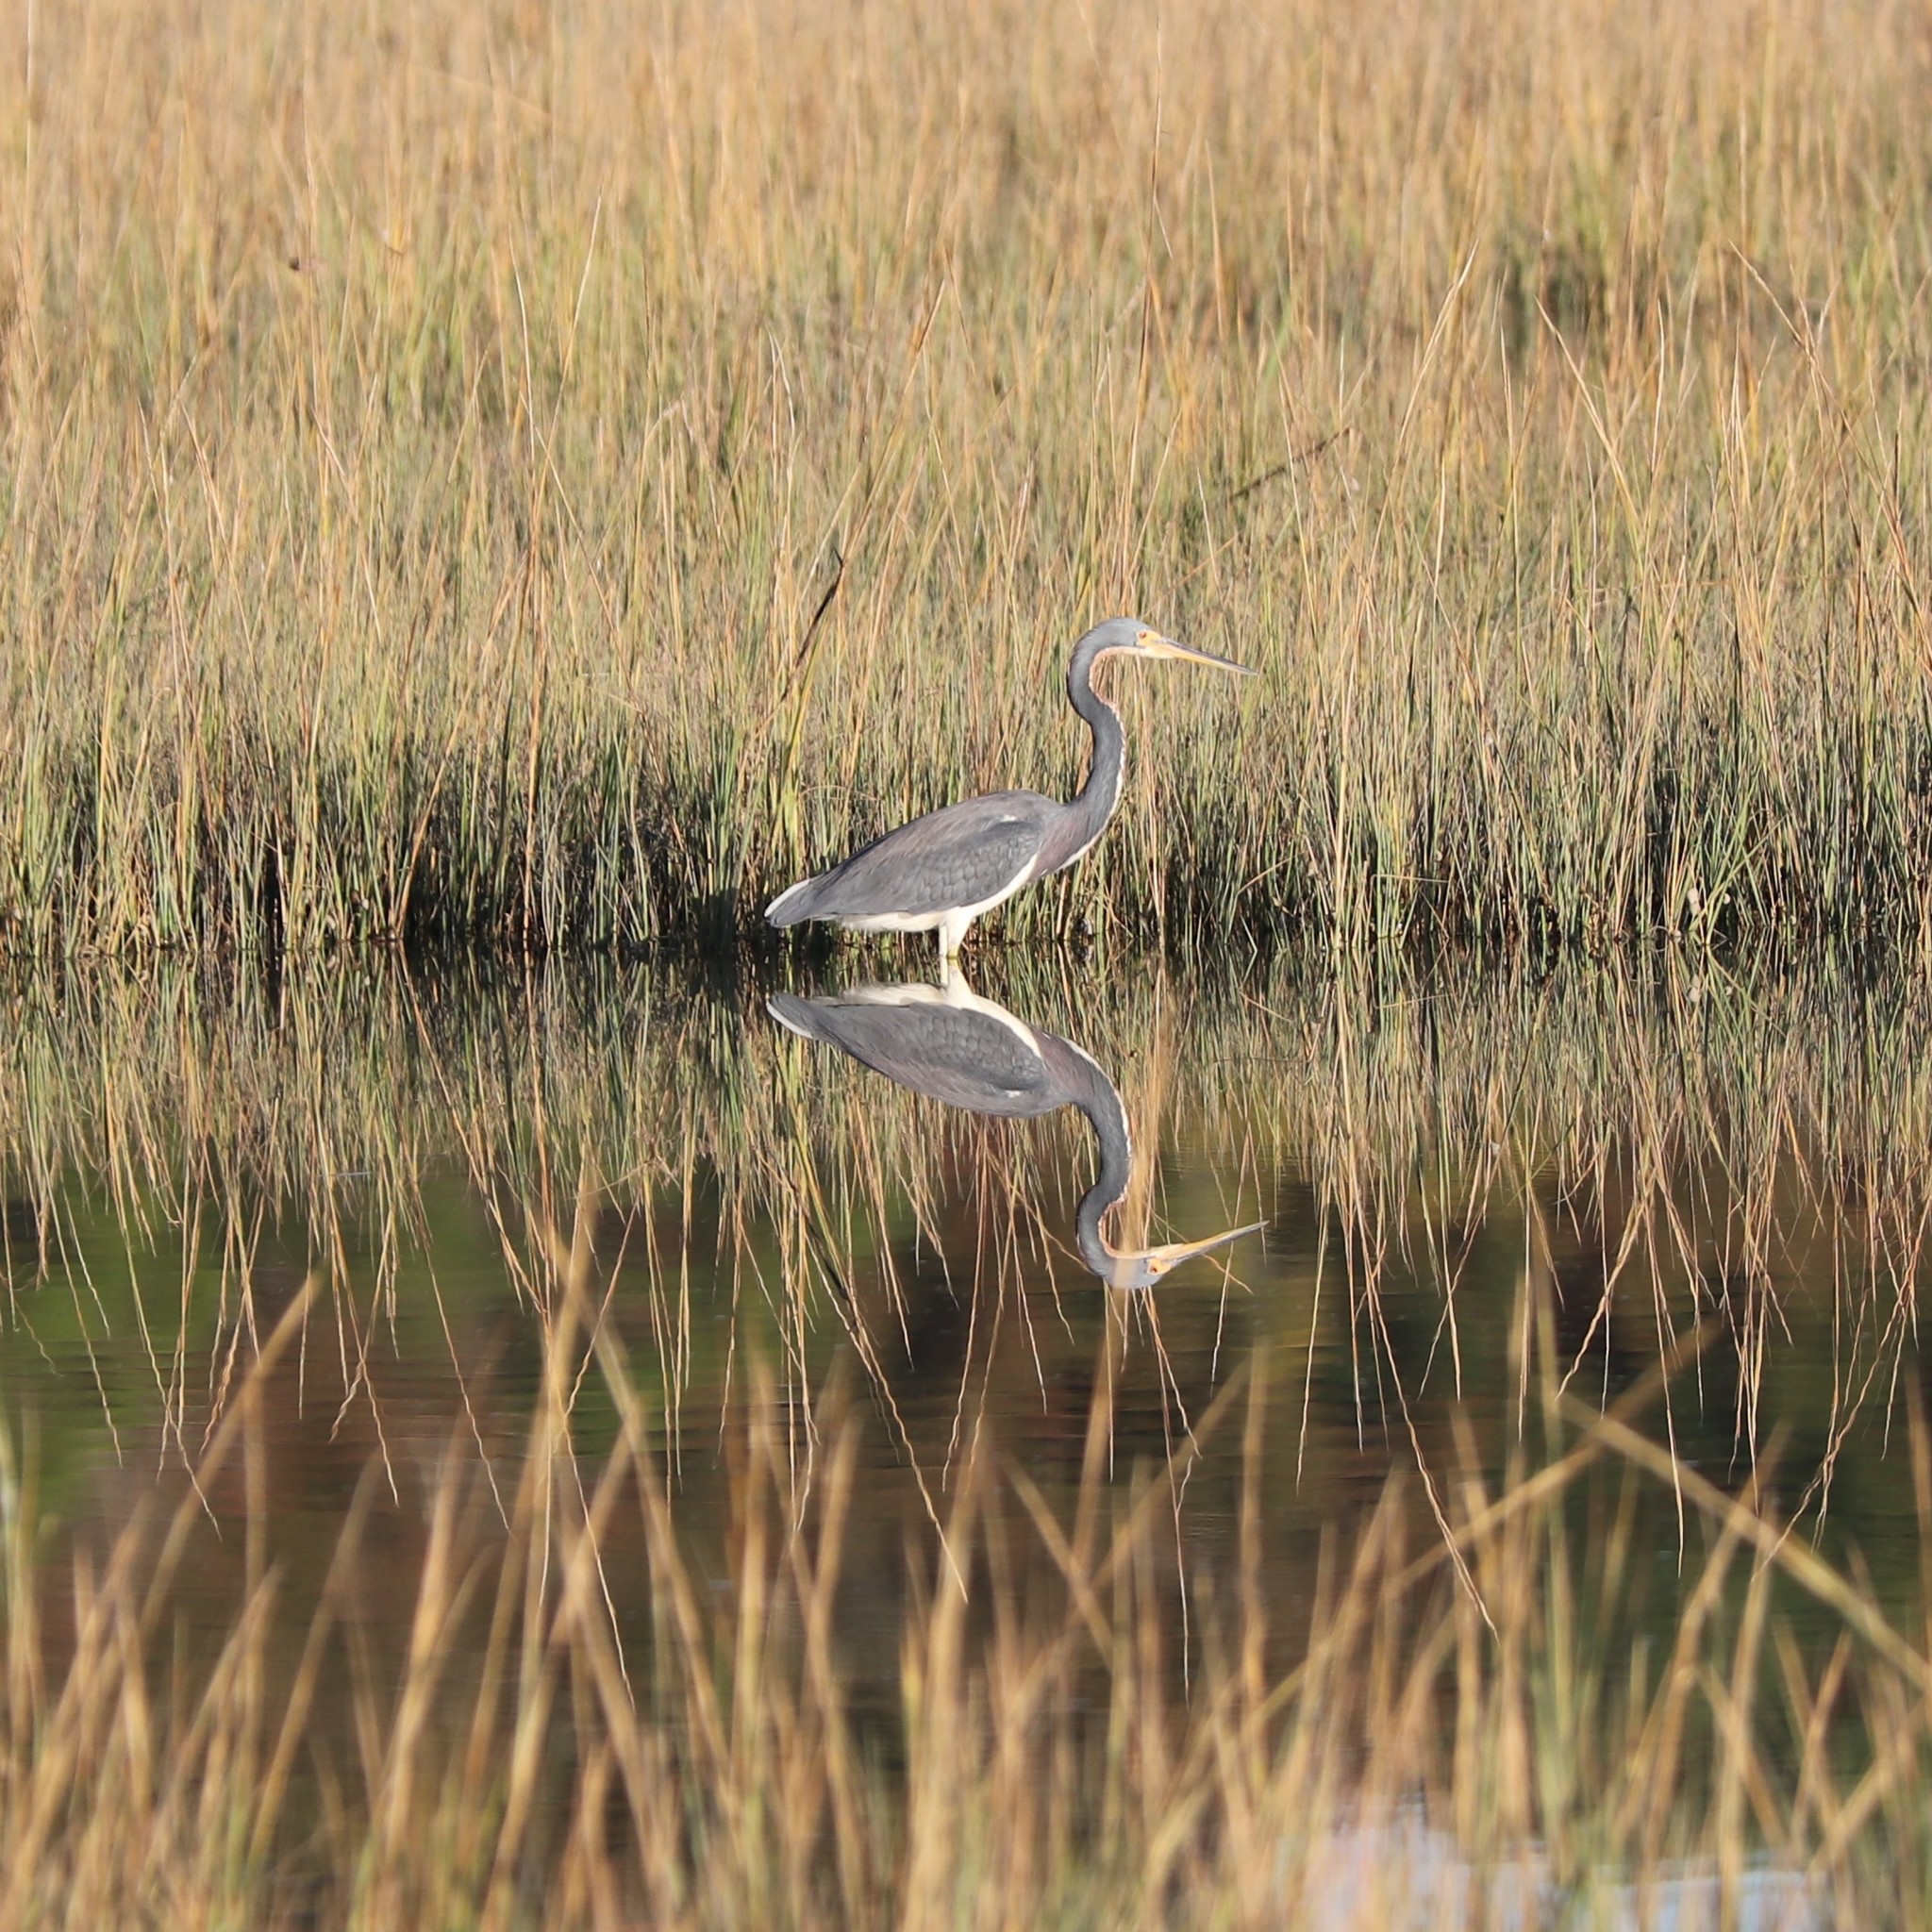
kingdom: Animalia
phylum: Chordata
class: Aves
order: Pelecaniformes
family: Ardeidae
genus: Egretta
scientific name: Egretta tricolor
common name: Tricolored heron
